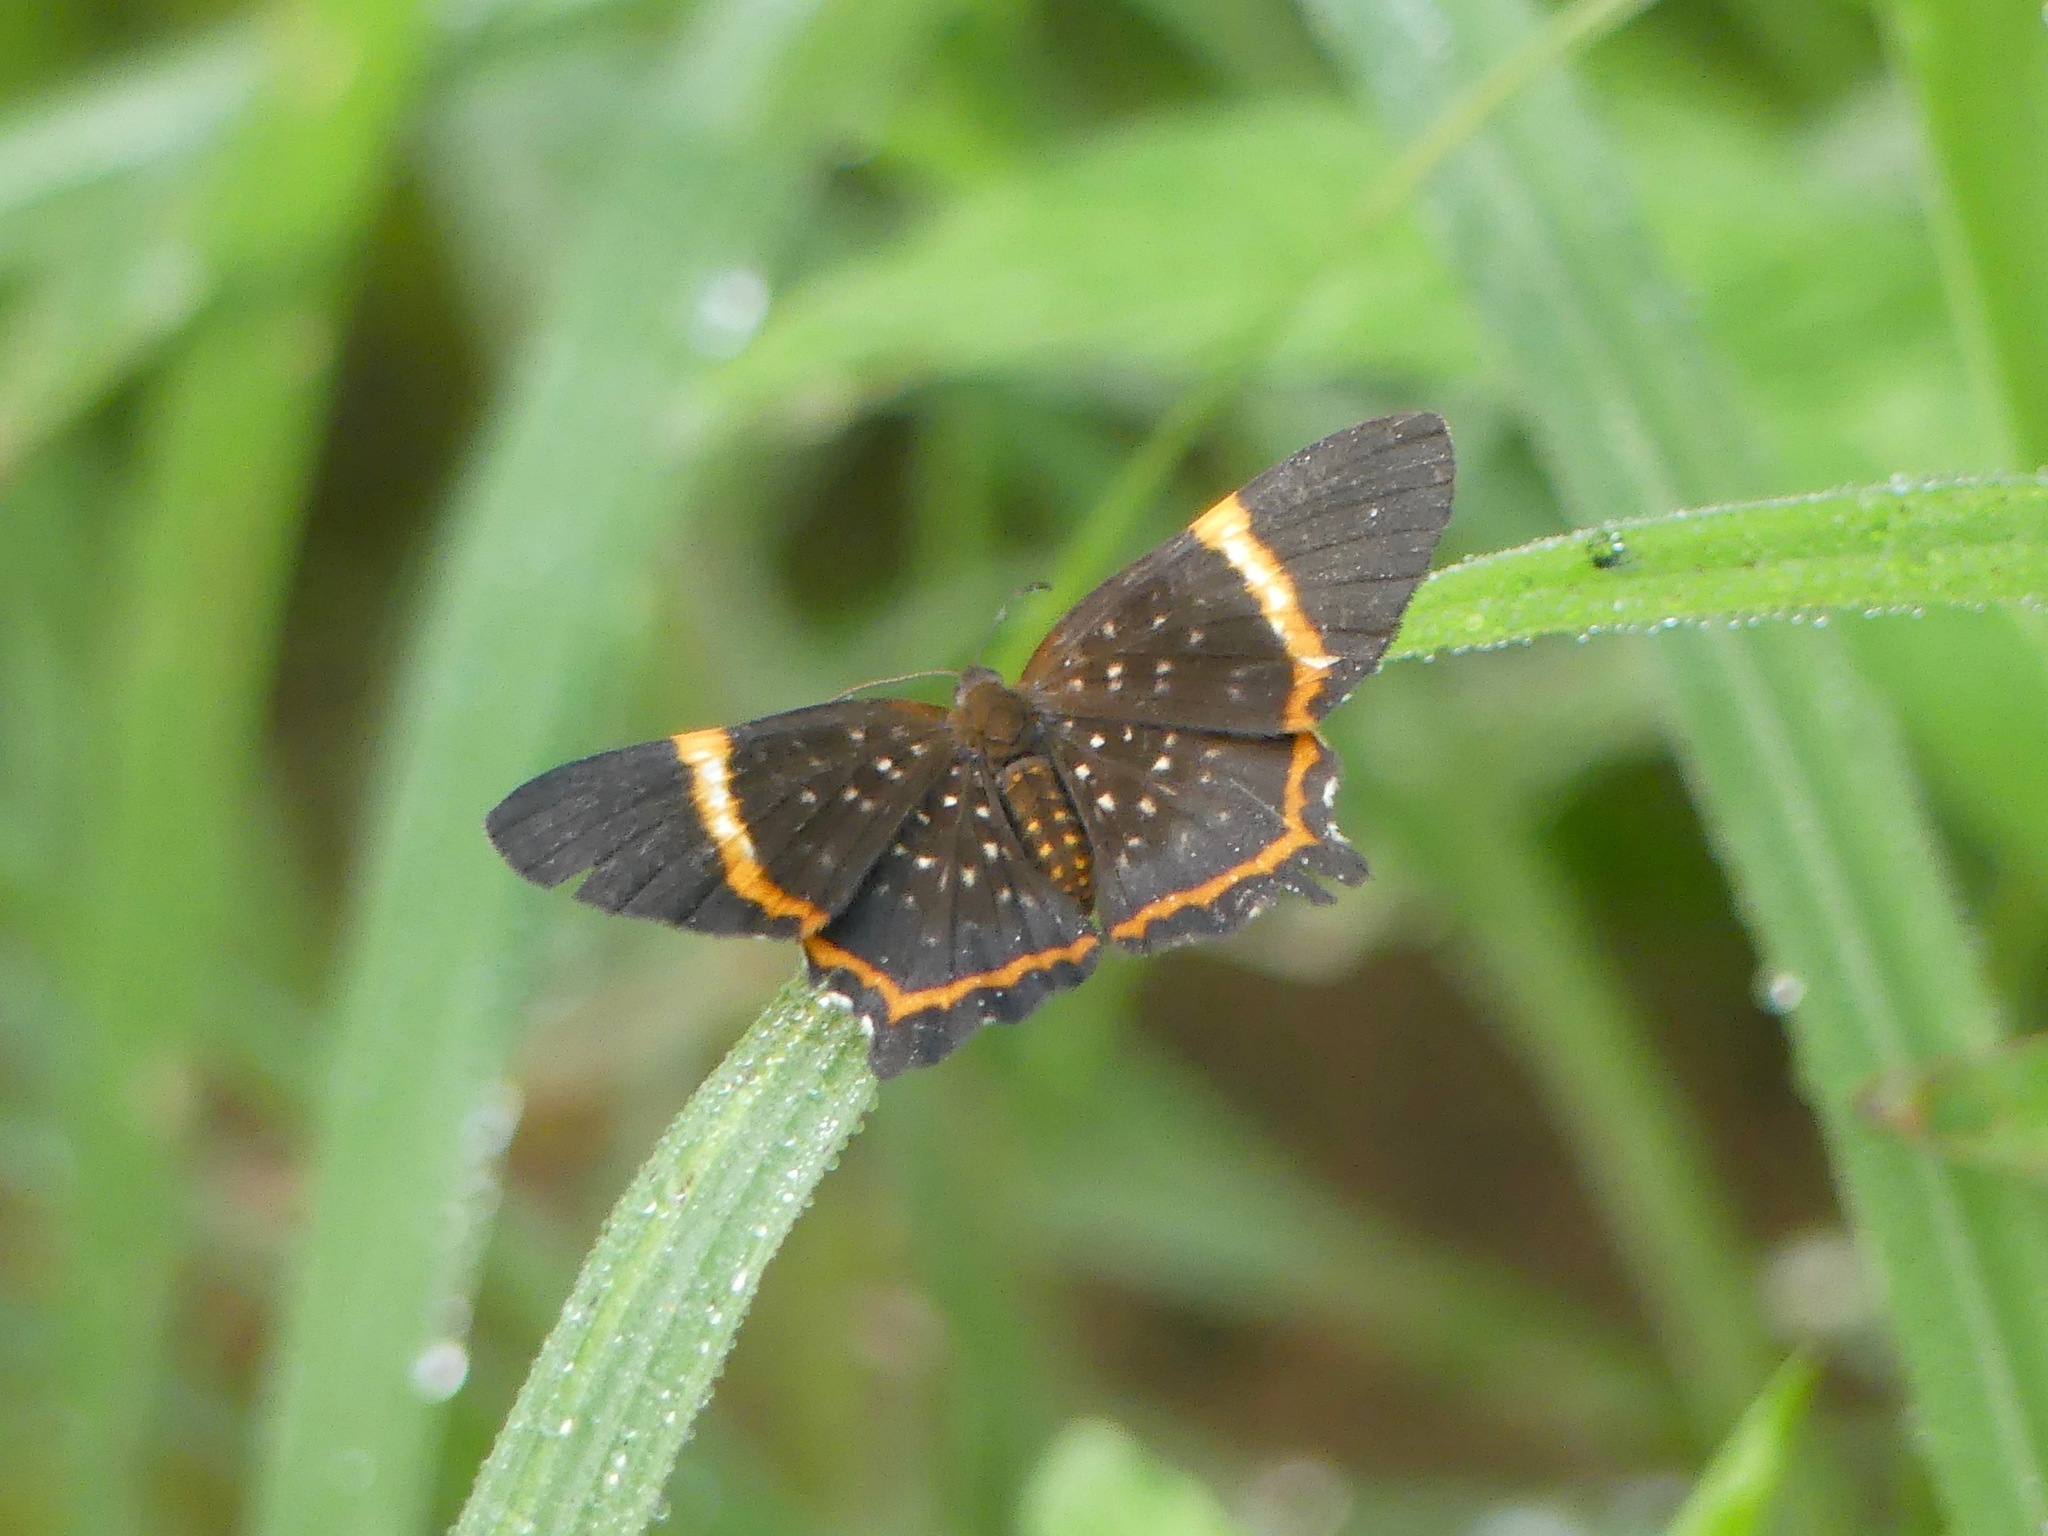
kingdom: Animalia
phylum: Arthropoda
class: Insecta
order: Lepidoptera
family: Riodinidae
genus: Riodina
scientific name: Riodina lysippus
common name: Lysippus metalmark
